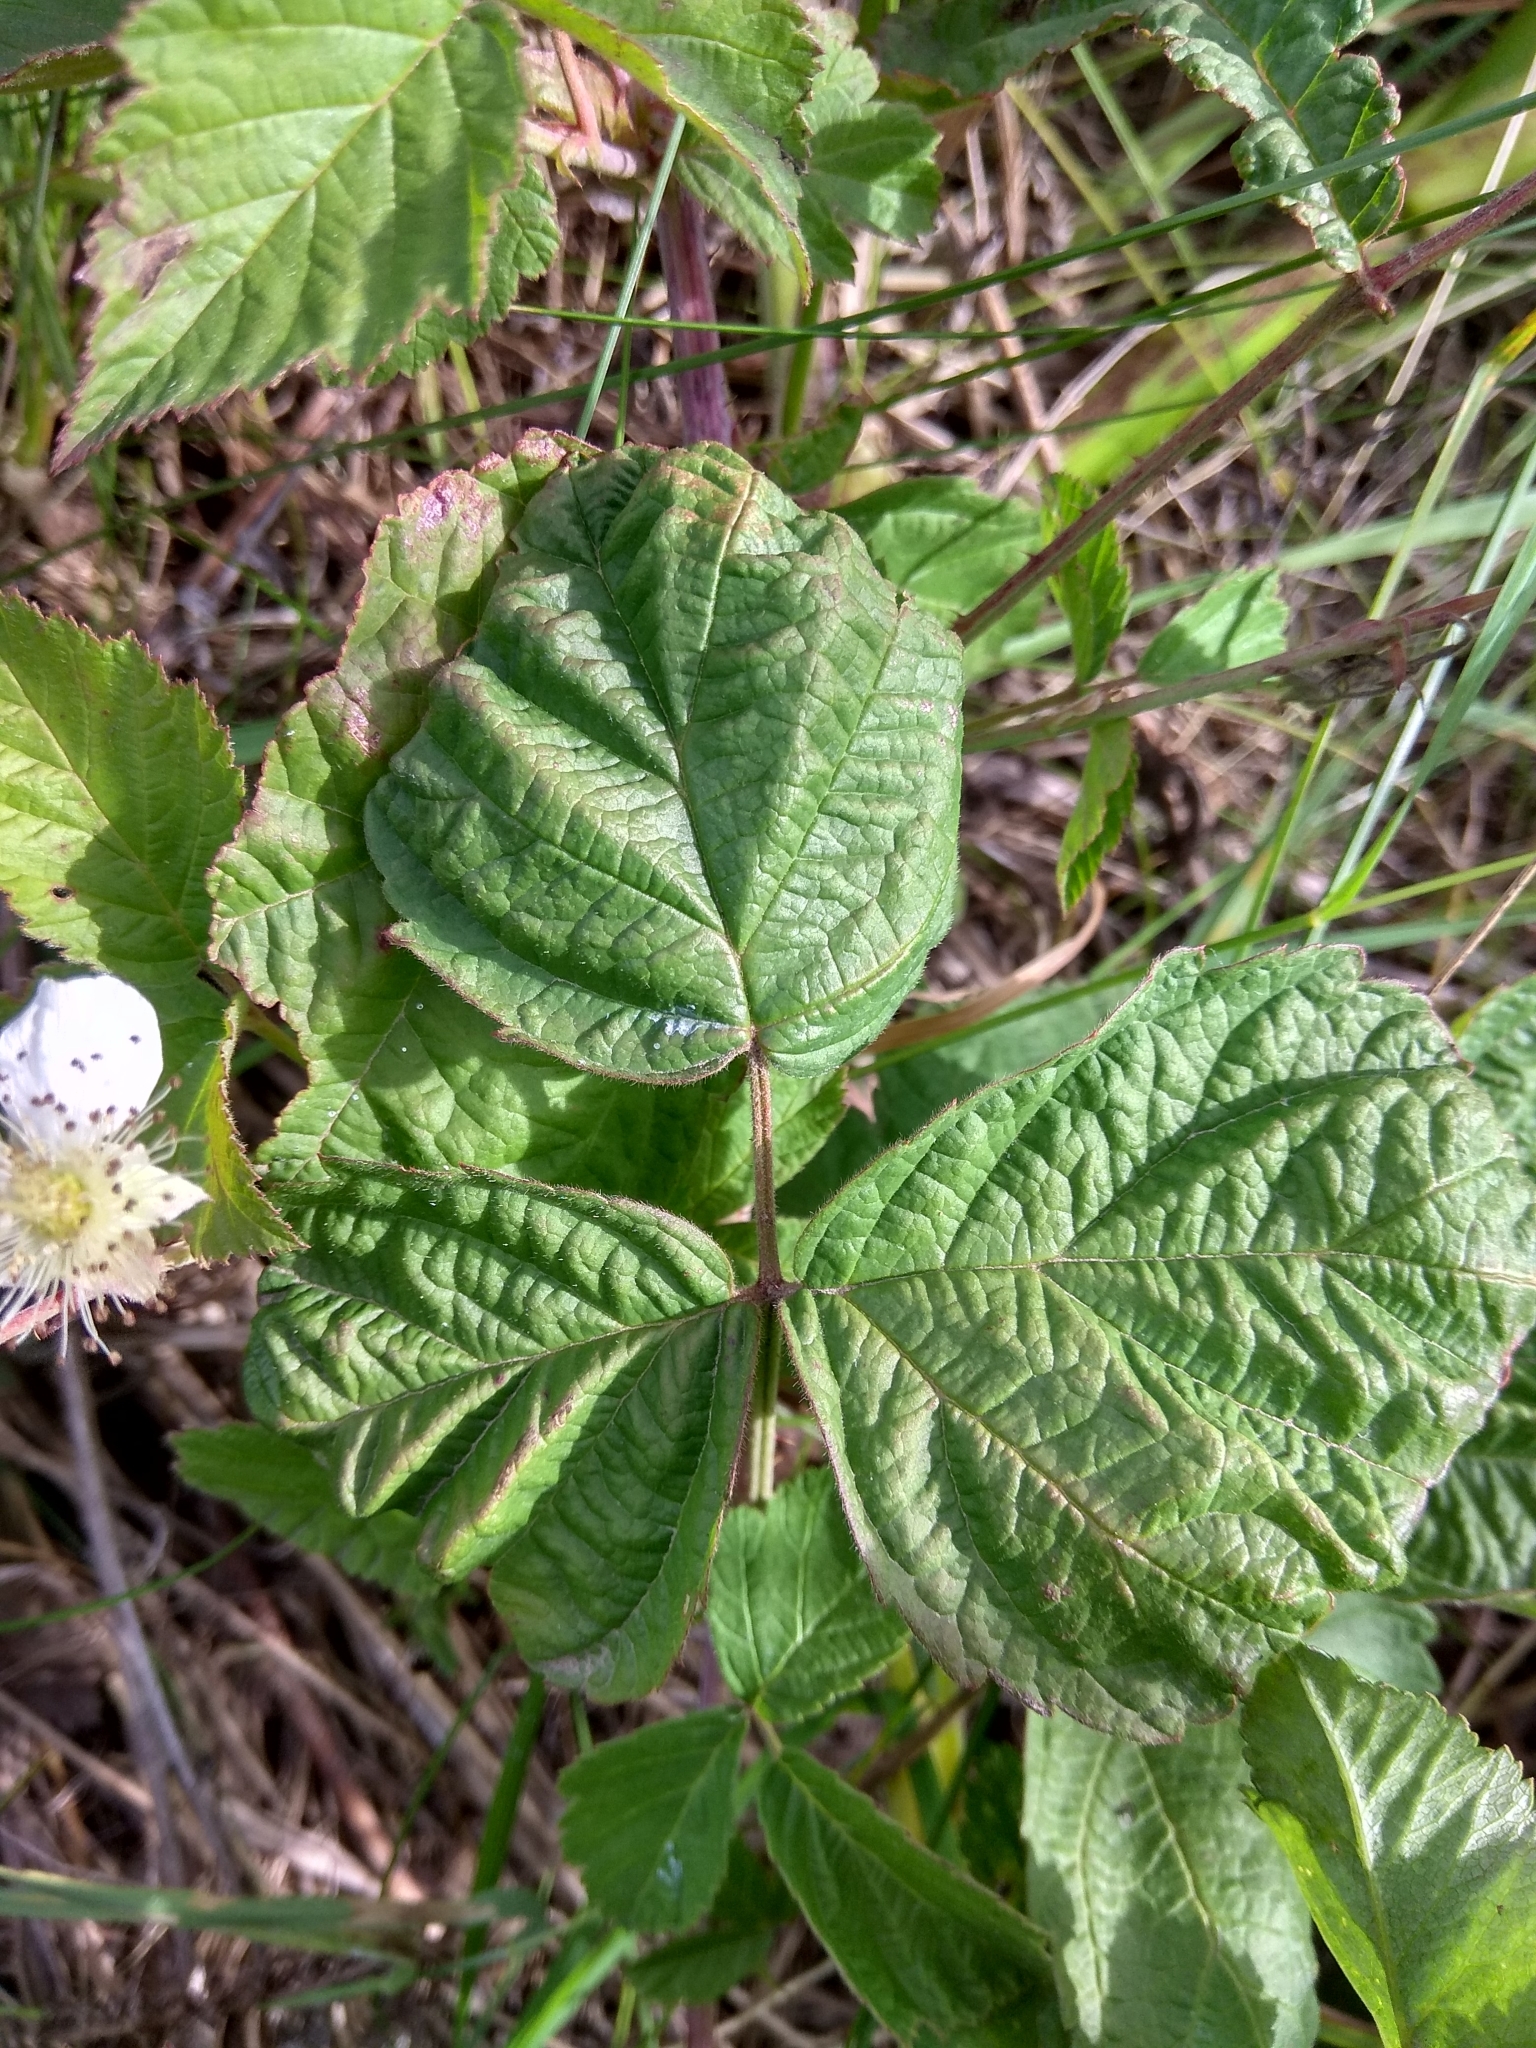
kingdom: Plantae
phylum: Tracheophyta
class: Magnoliopsida
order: Rosales
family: Rosaceae
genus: Rubus
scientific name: Rubus caesius
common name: Dewberry
